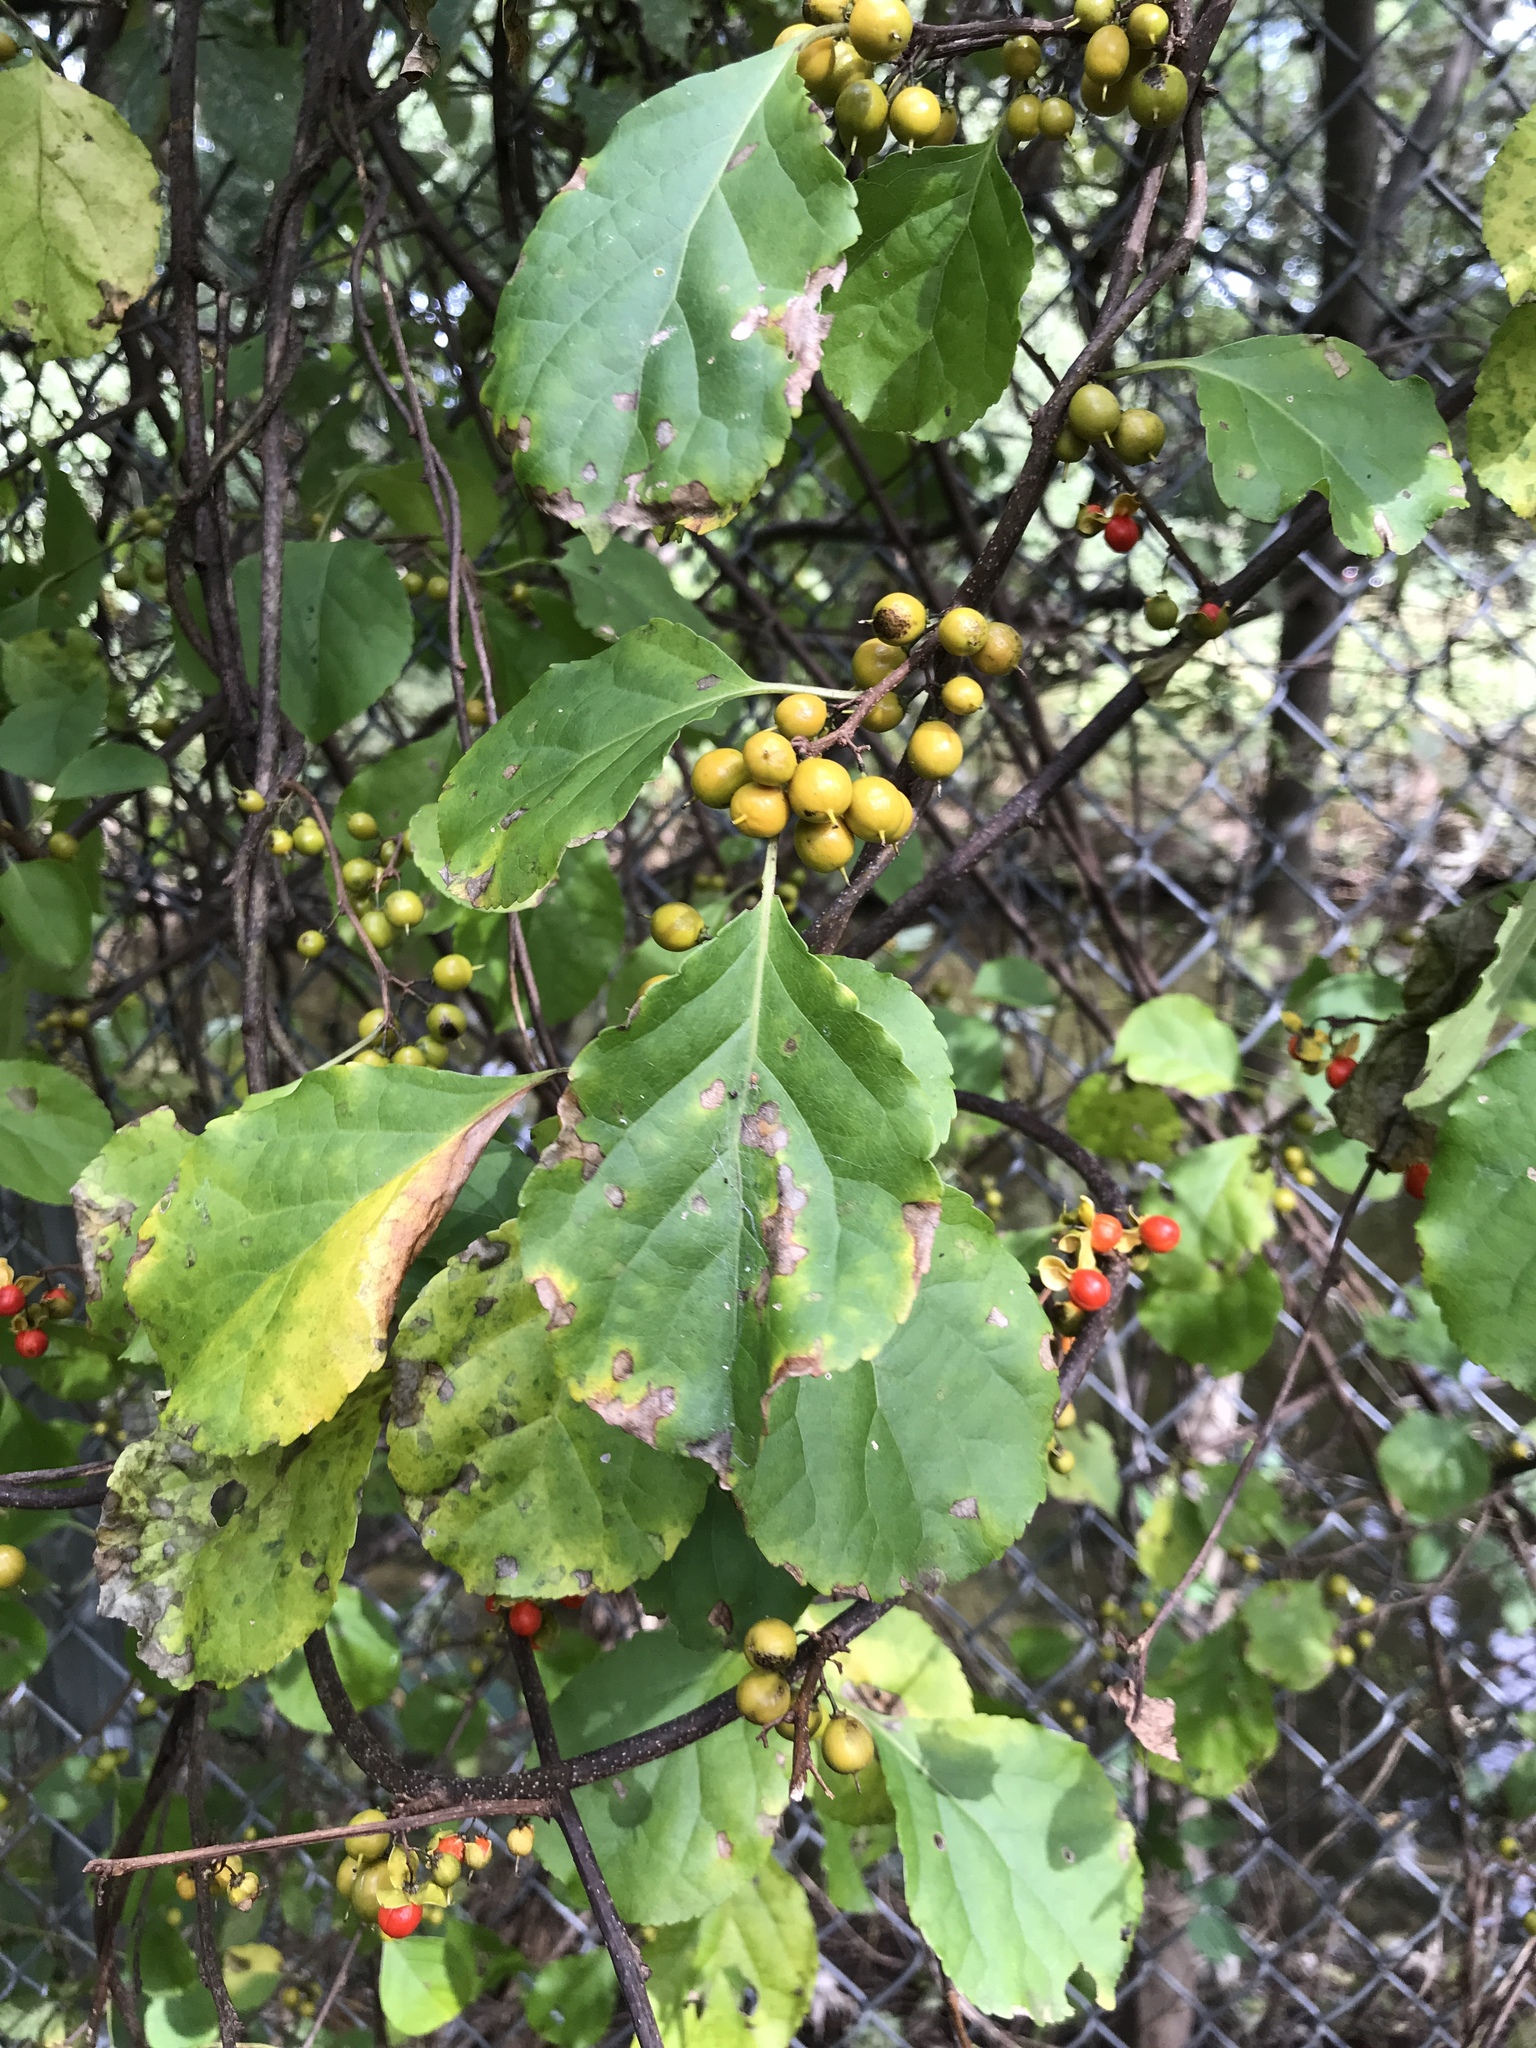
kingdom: Plantae
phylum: Tracheophyta
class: Magnoliopsida
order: Celastrales
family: Celastraceae
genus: Celastrus
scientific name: Celastrus orbiculatus
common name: Oriental bittersweet
